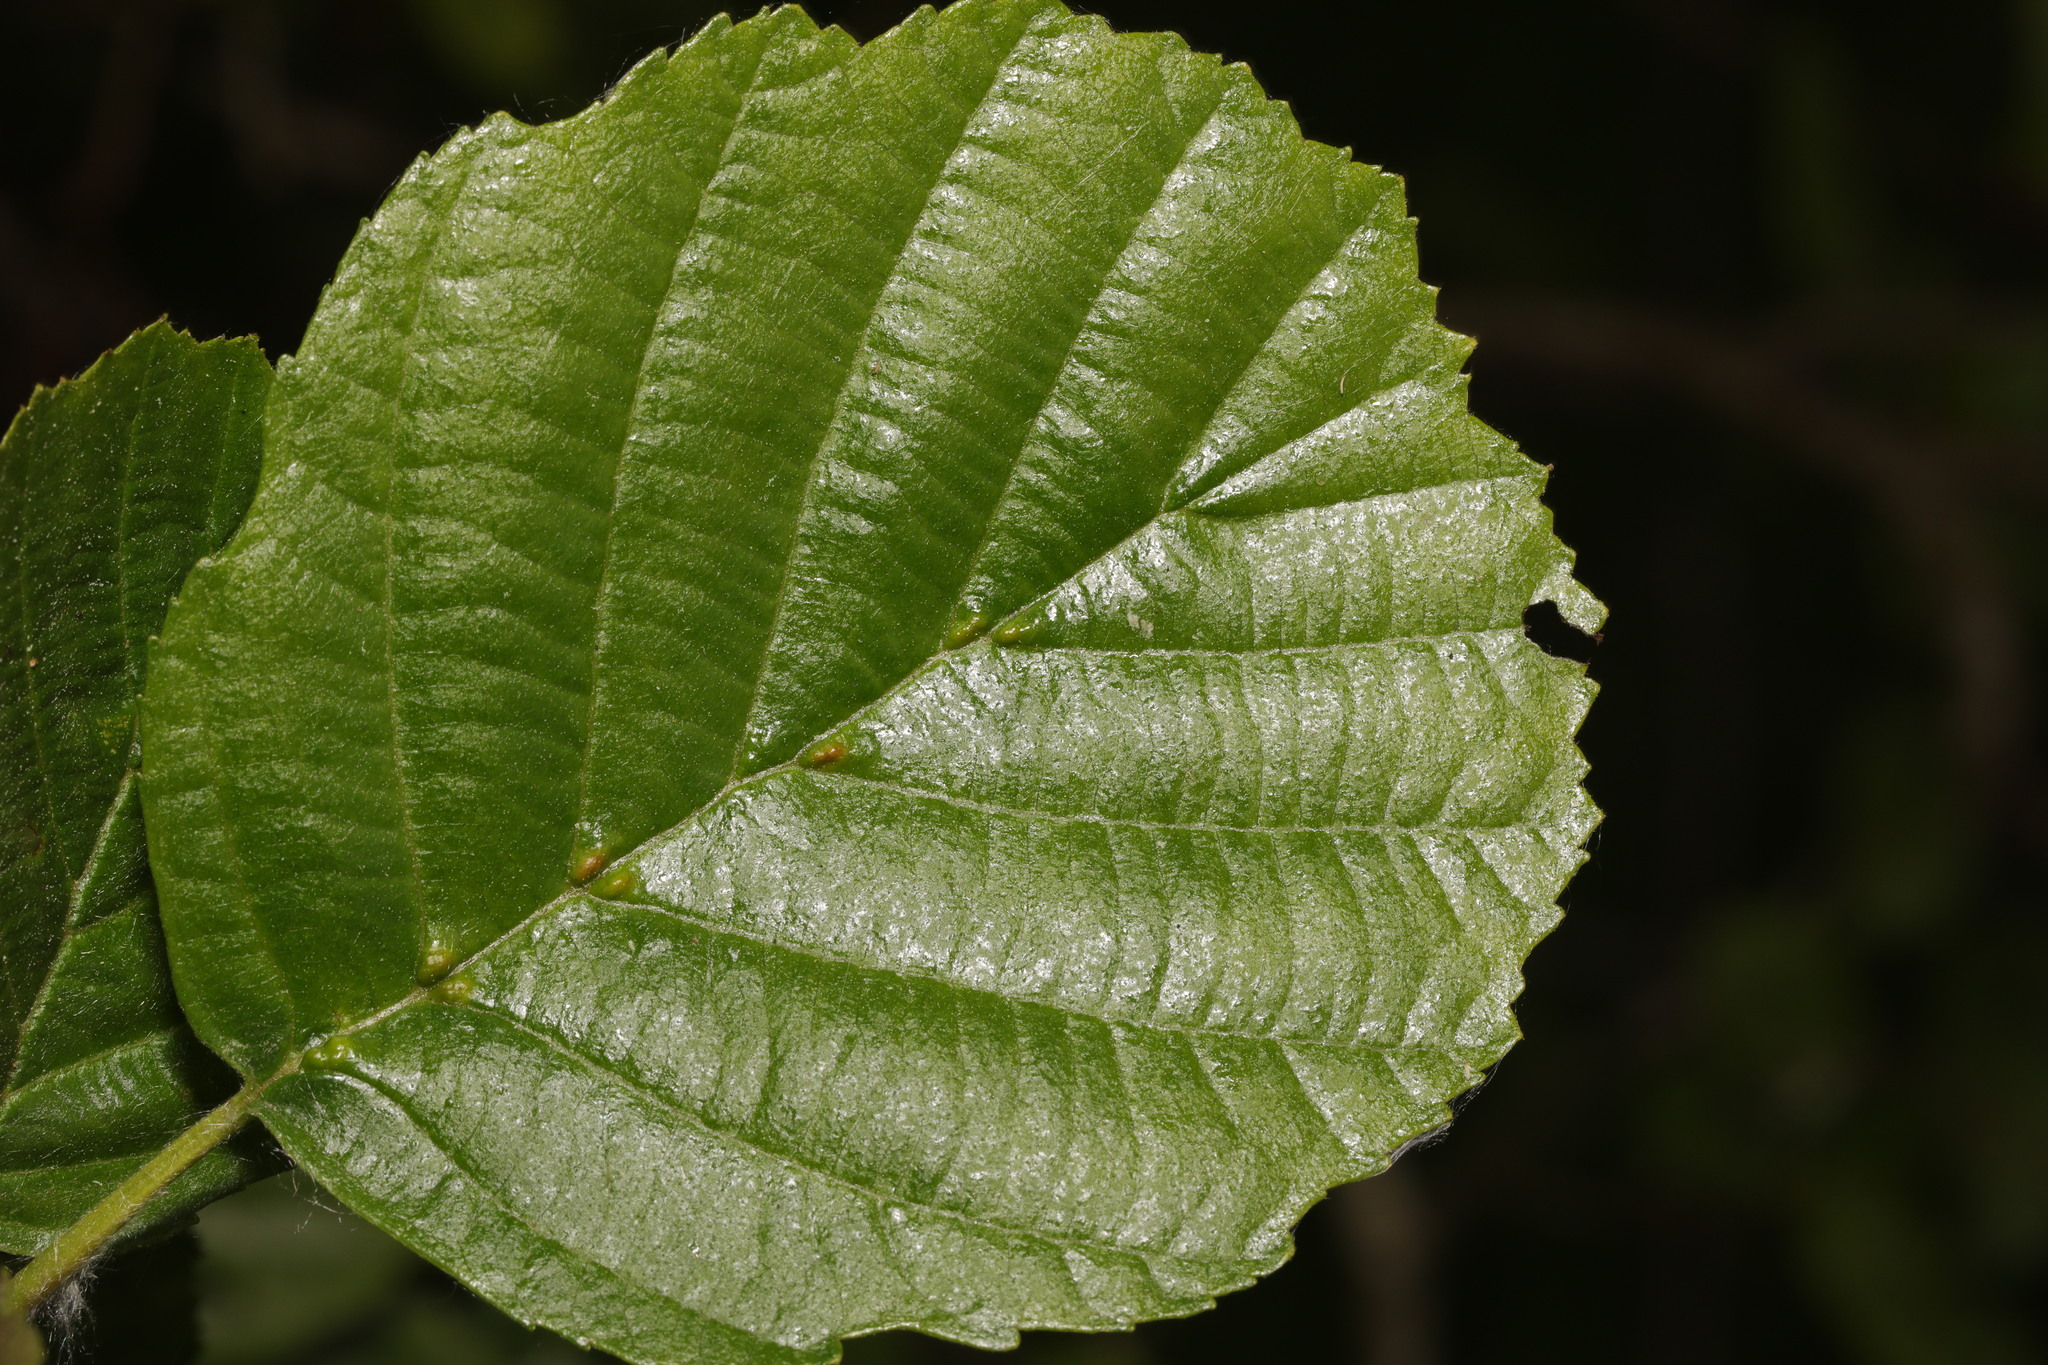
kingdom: Animalia
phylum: Arthropoda
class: Arachnida
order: Trombidiformes
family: Eriophyidae
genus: Eriophyes
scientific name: Eriophyes inangulis
